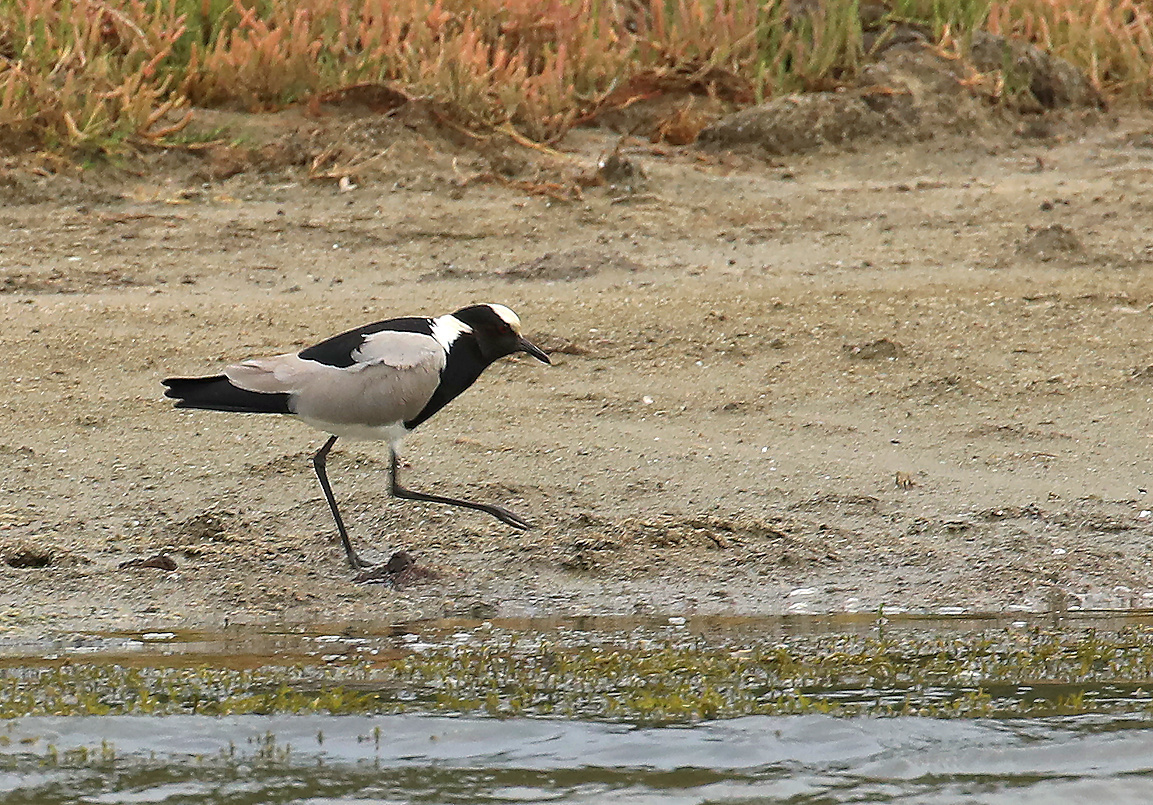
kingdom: Animalia
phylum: Chordata
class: Aves
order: Charadriiformes
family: Charadriidae
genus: Vanellus
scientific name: Vanellus armatus
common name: Blacksmith lapwing
